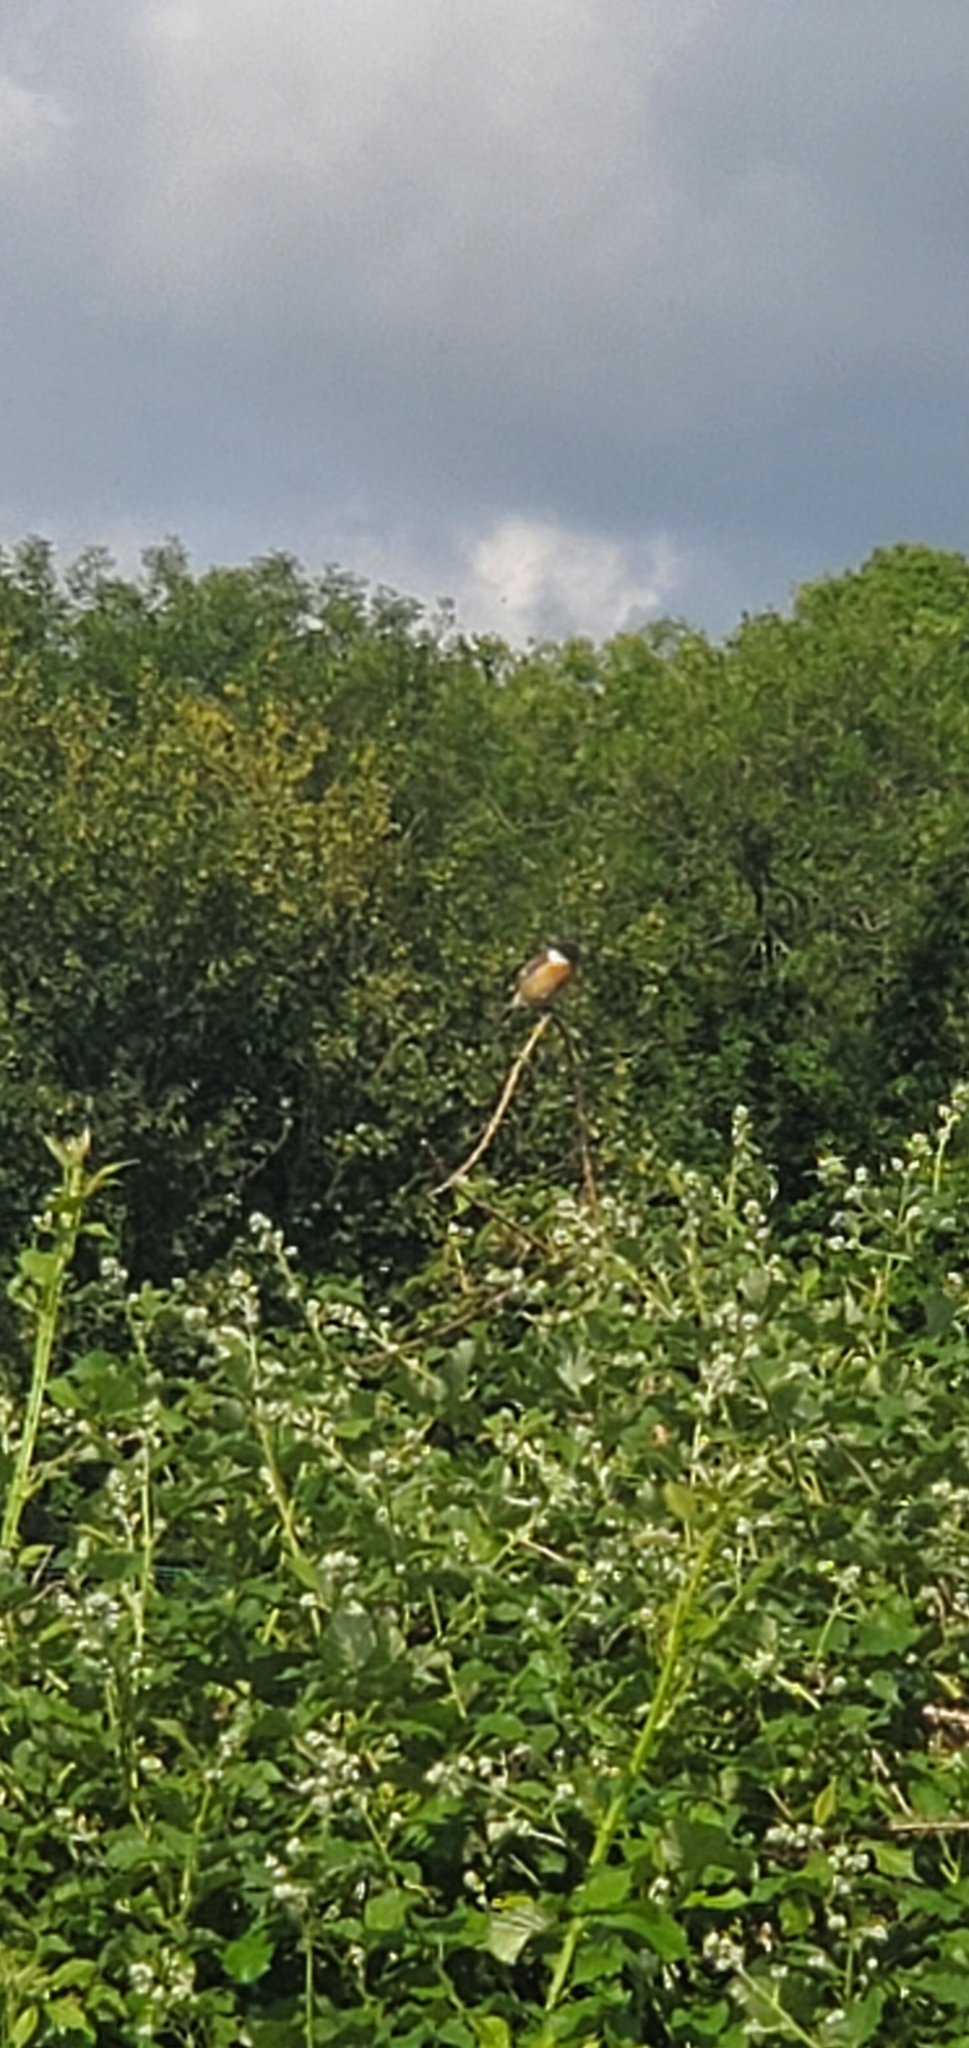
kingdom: Animalia
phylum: Chordata
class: Aves
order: Passeriformes
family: Muscicapidae
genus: Saxicola
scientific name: Saxicola rubicola
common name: European stonechat
